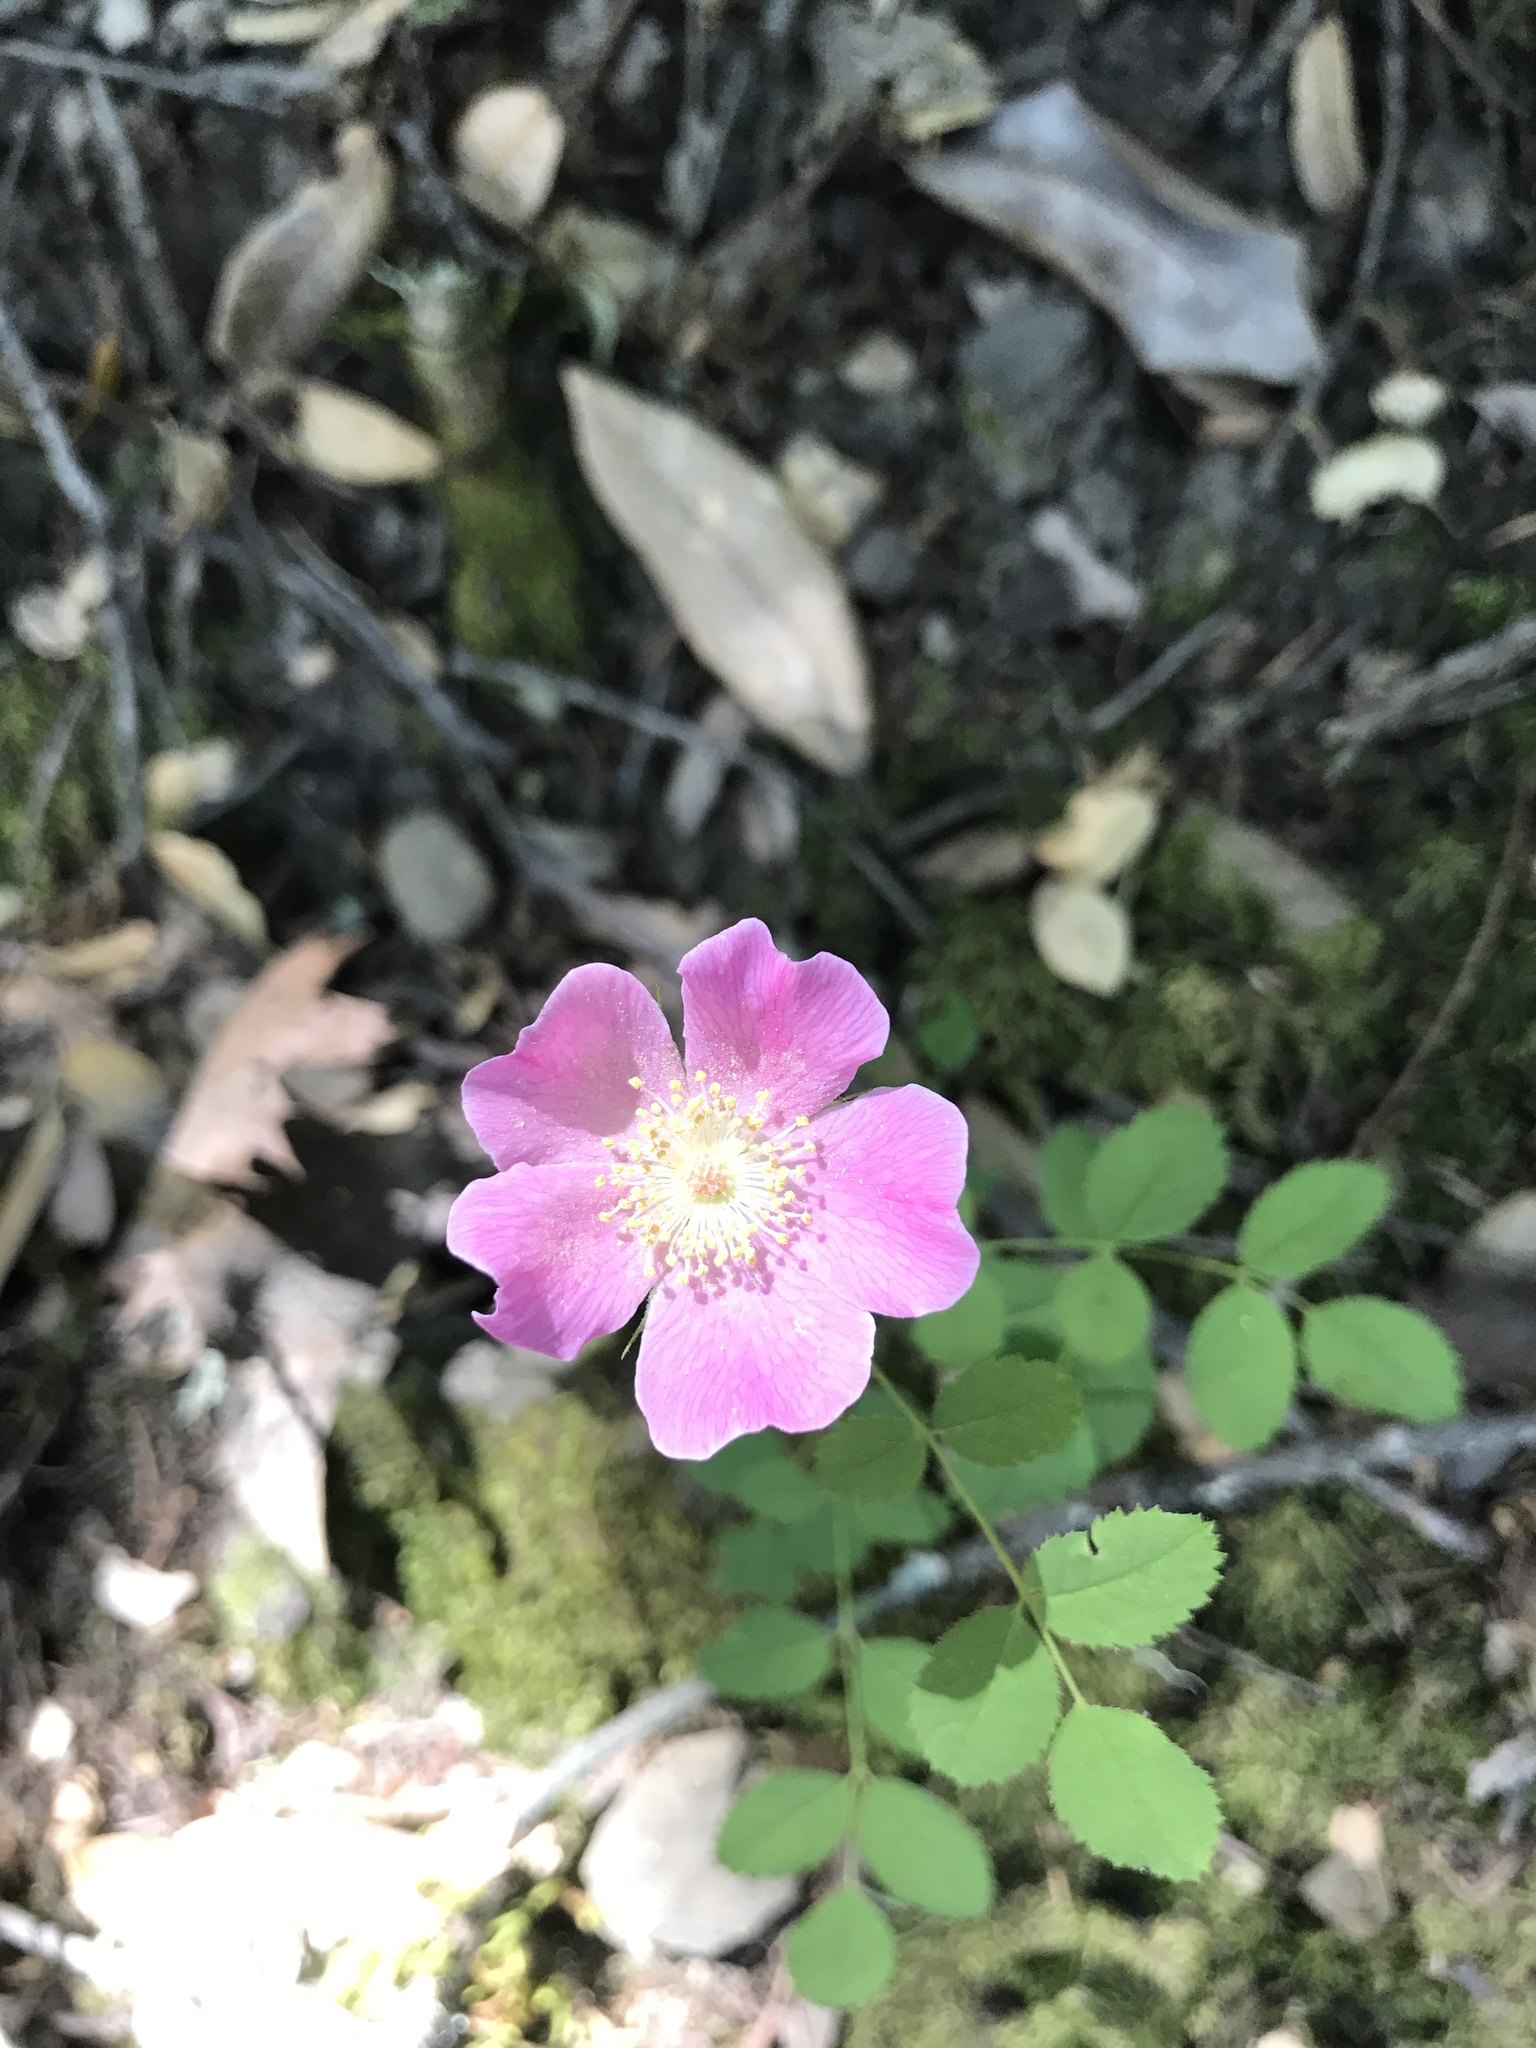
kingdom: Plantae
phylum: Tracheophyta
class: Magnoliopsida
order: Rosales
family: Rosaceae
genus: Rosa
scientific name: Rosa californica
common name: California rose
